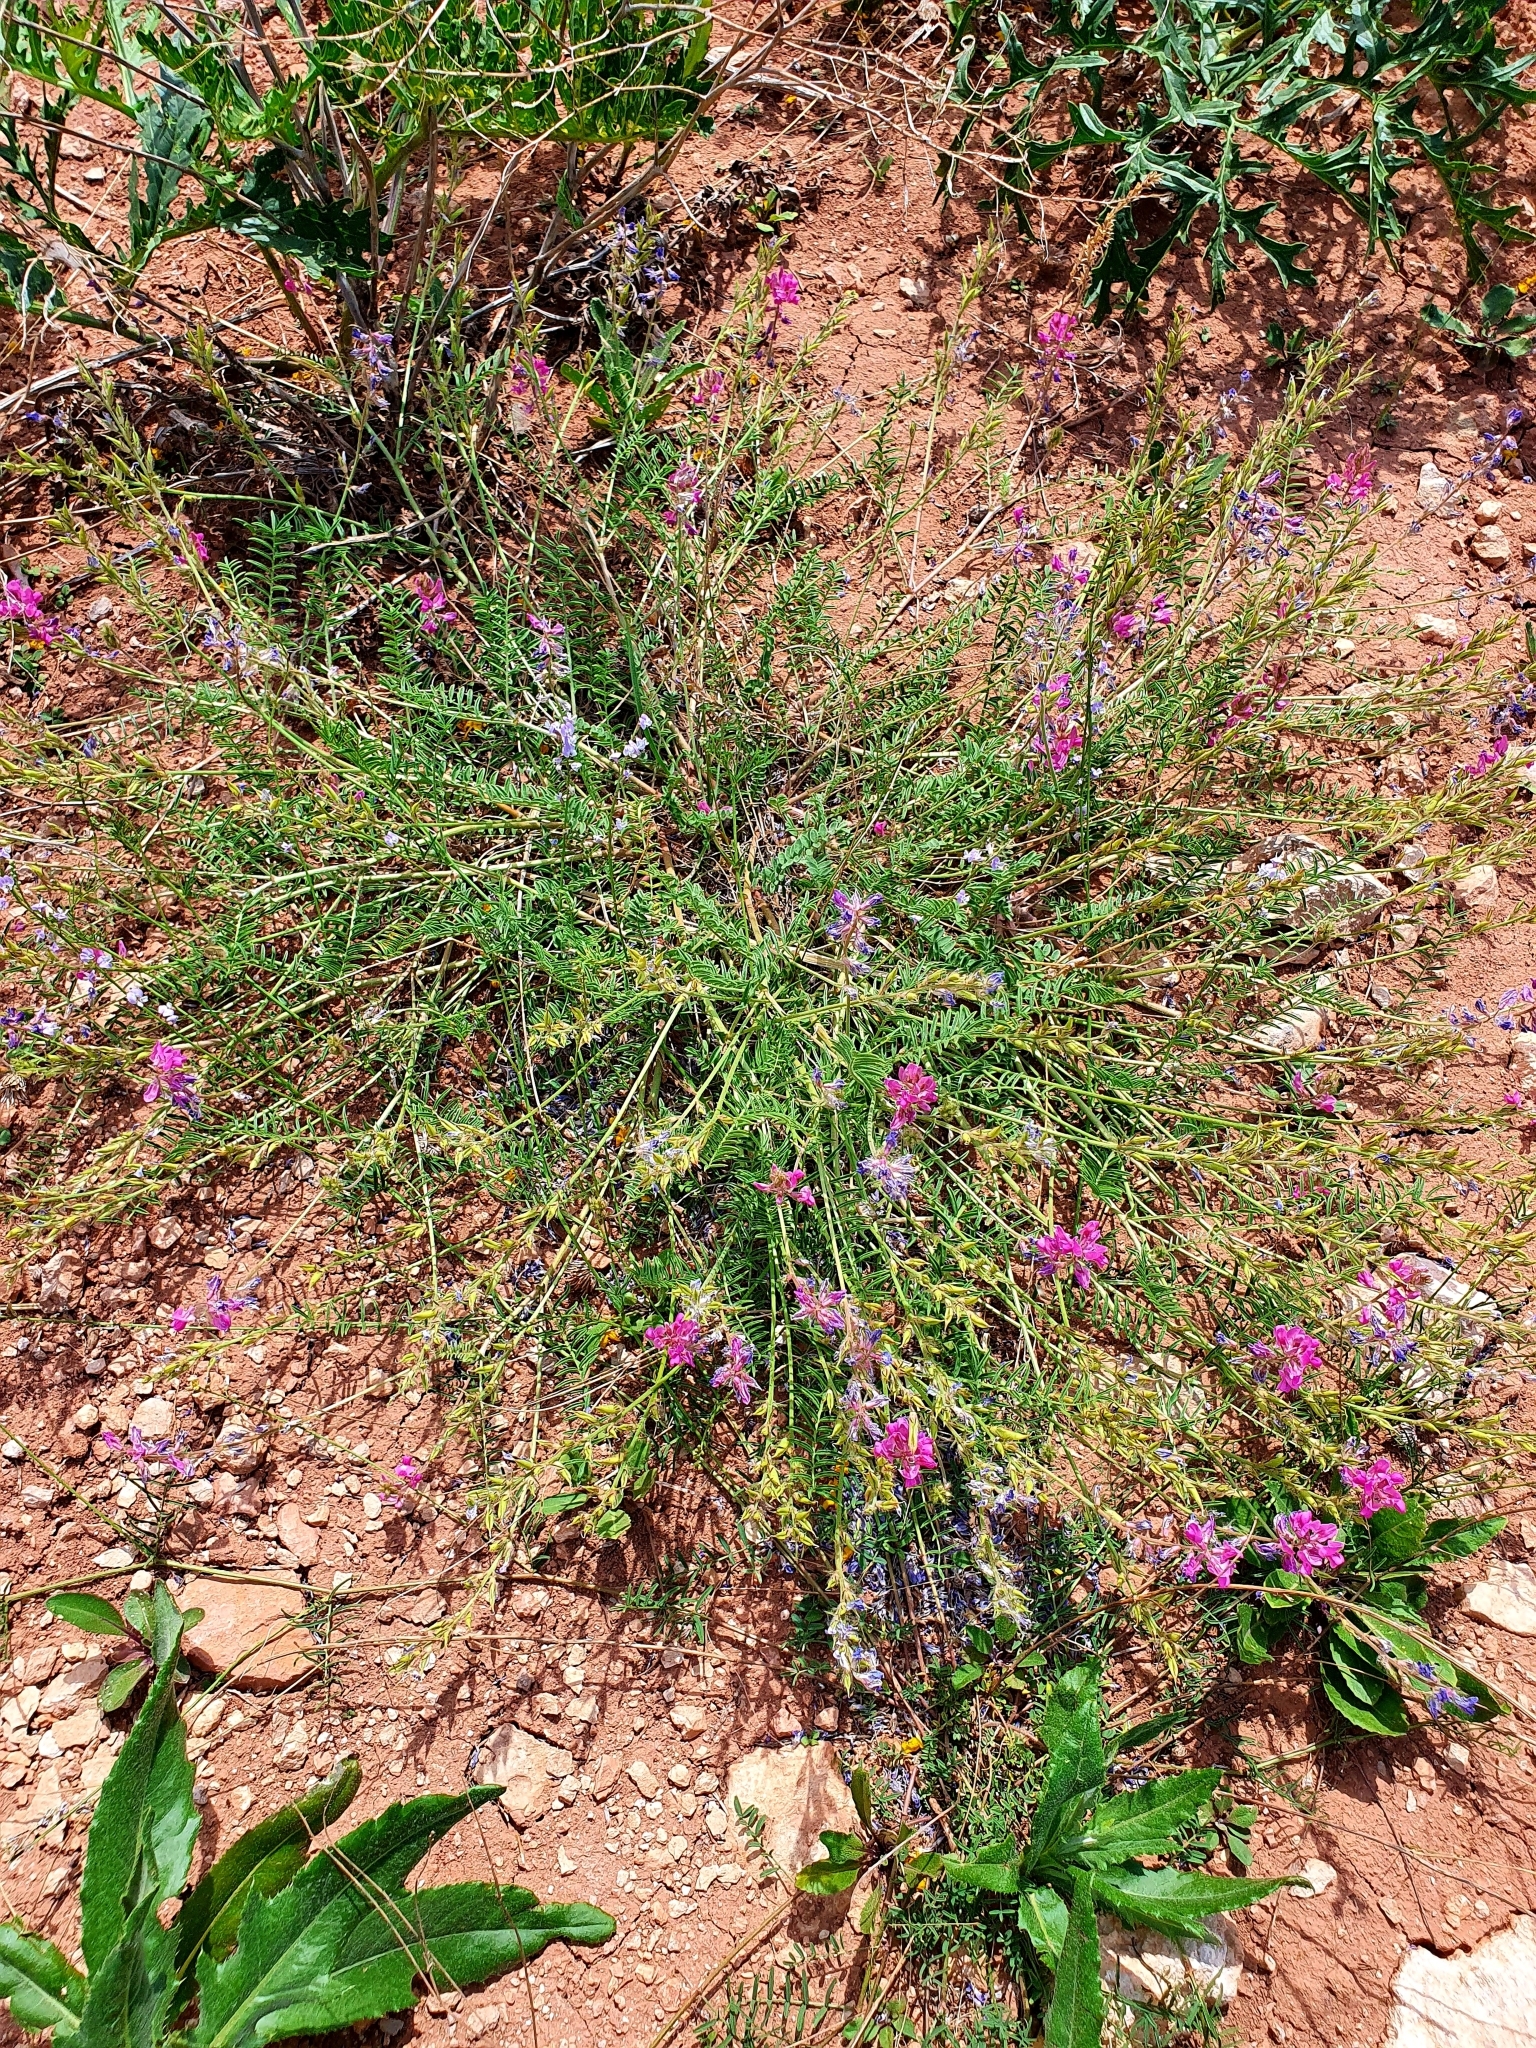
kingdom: Plantae
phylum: Tracheophyta
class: Magnoliopsida
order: Fabales
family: Fabaceae
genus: Oxytropis
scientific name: Oxytropis floribunda
